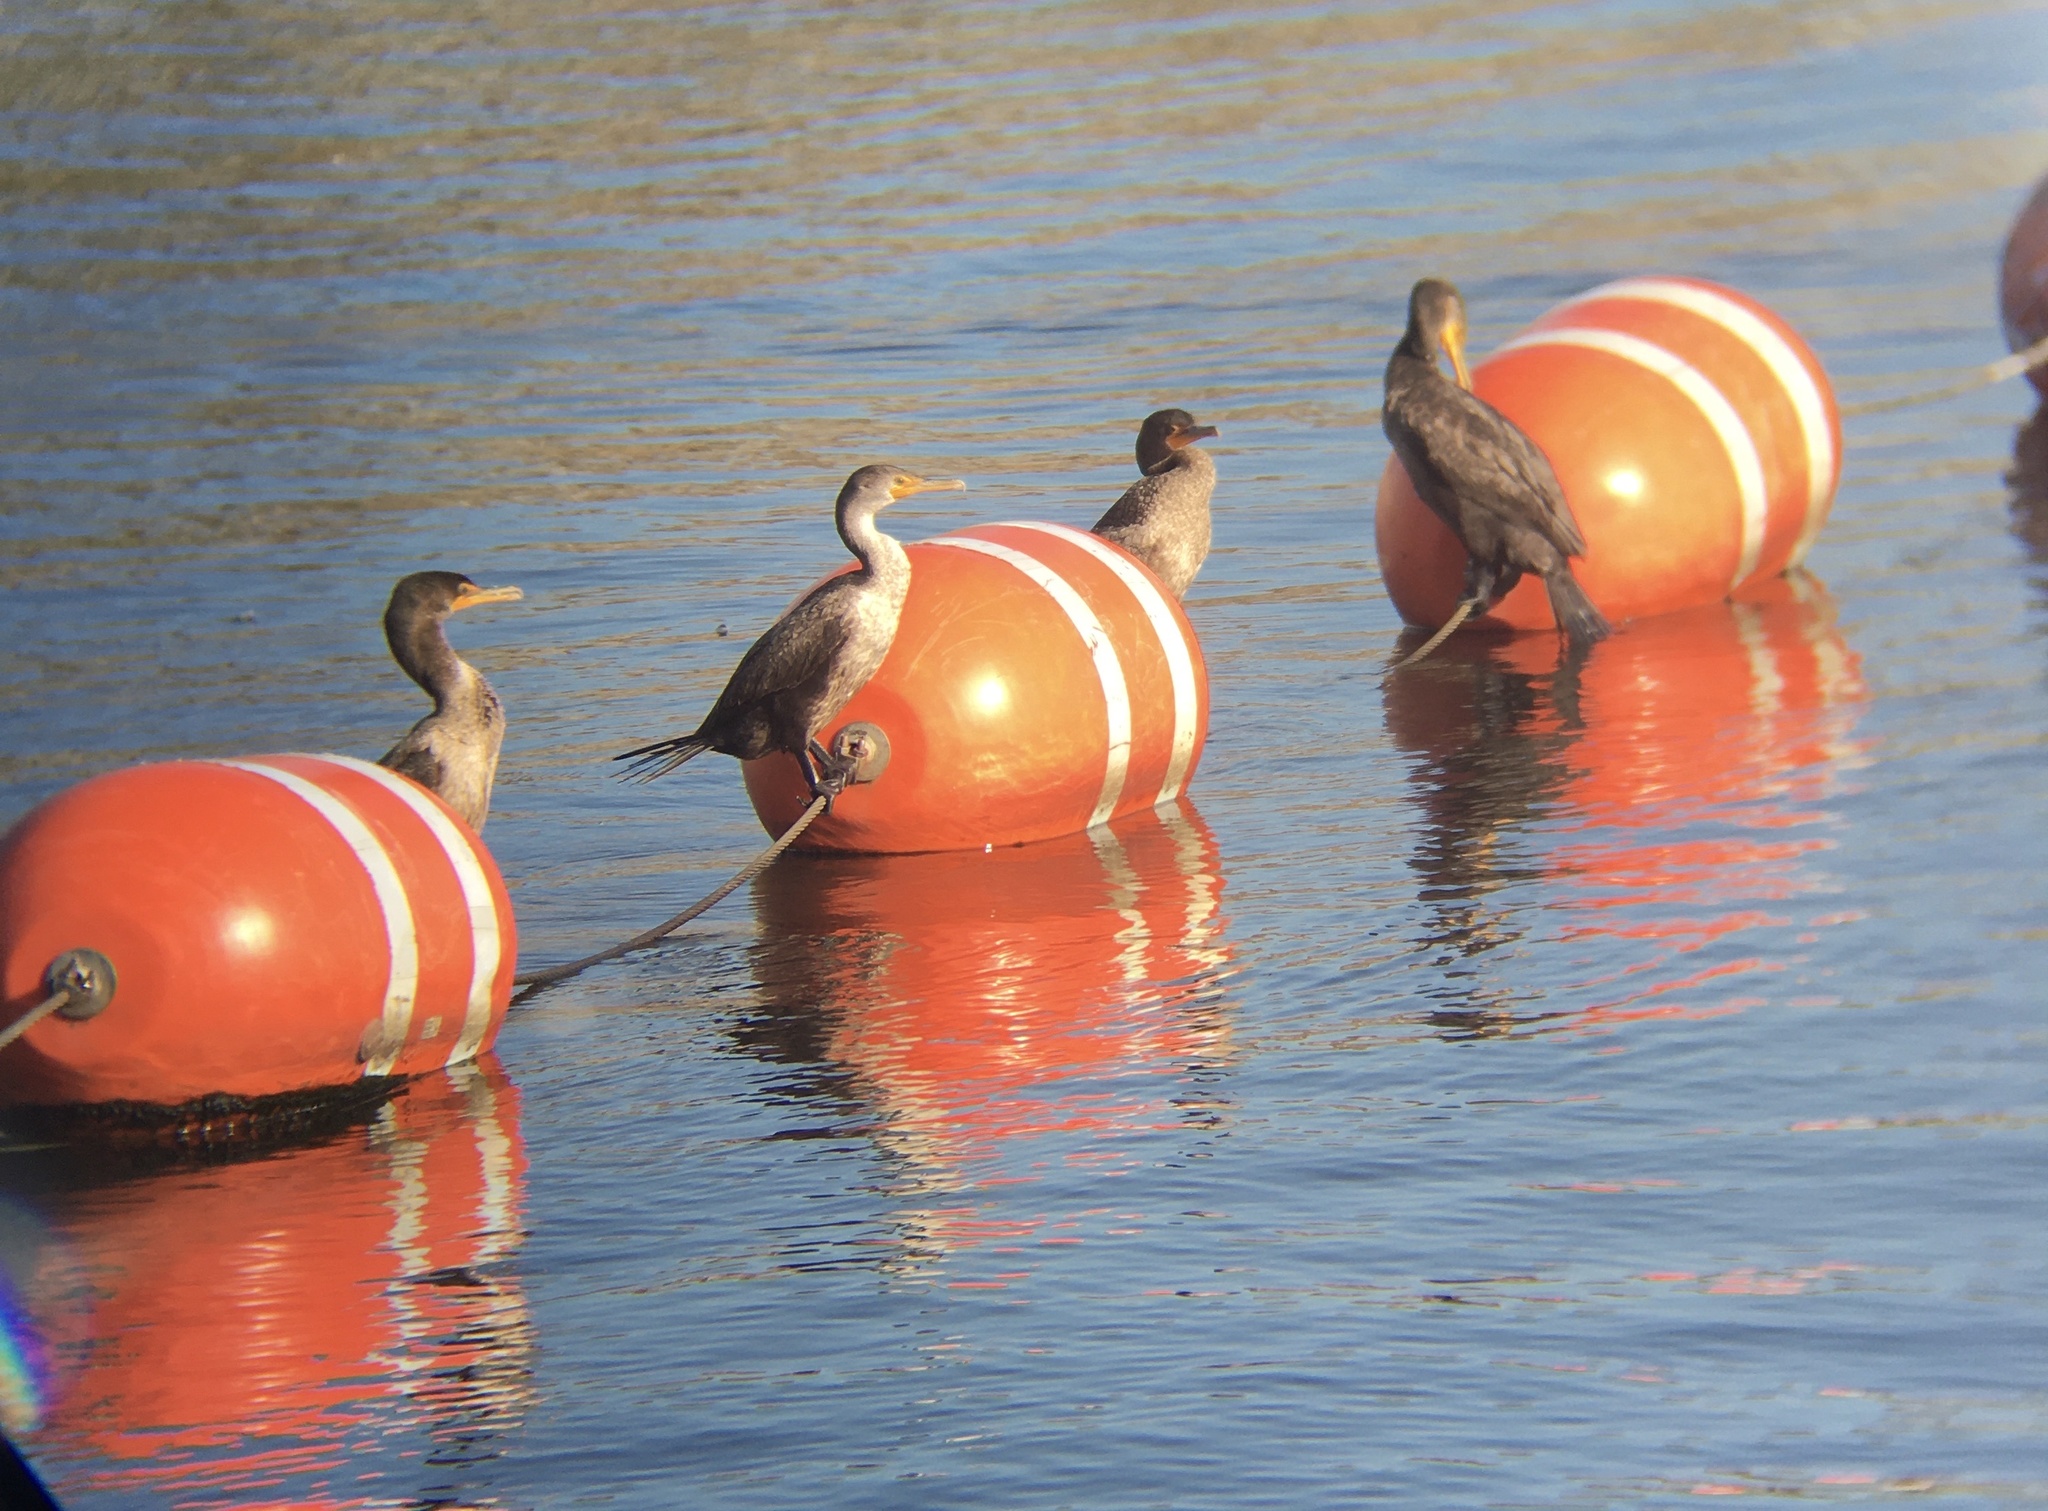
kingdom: Animalia
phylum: Chordata
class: Aves
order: Suliformes
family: Phalacrocoracidae
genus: Phalacrocorax
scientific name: Phalacrocorax auritus
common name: Double-crested cormorant
